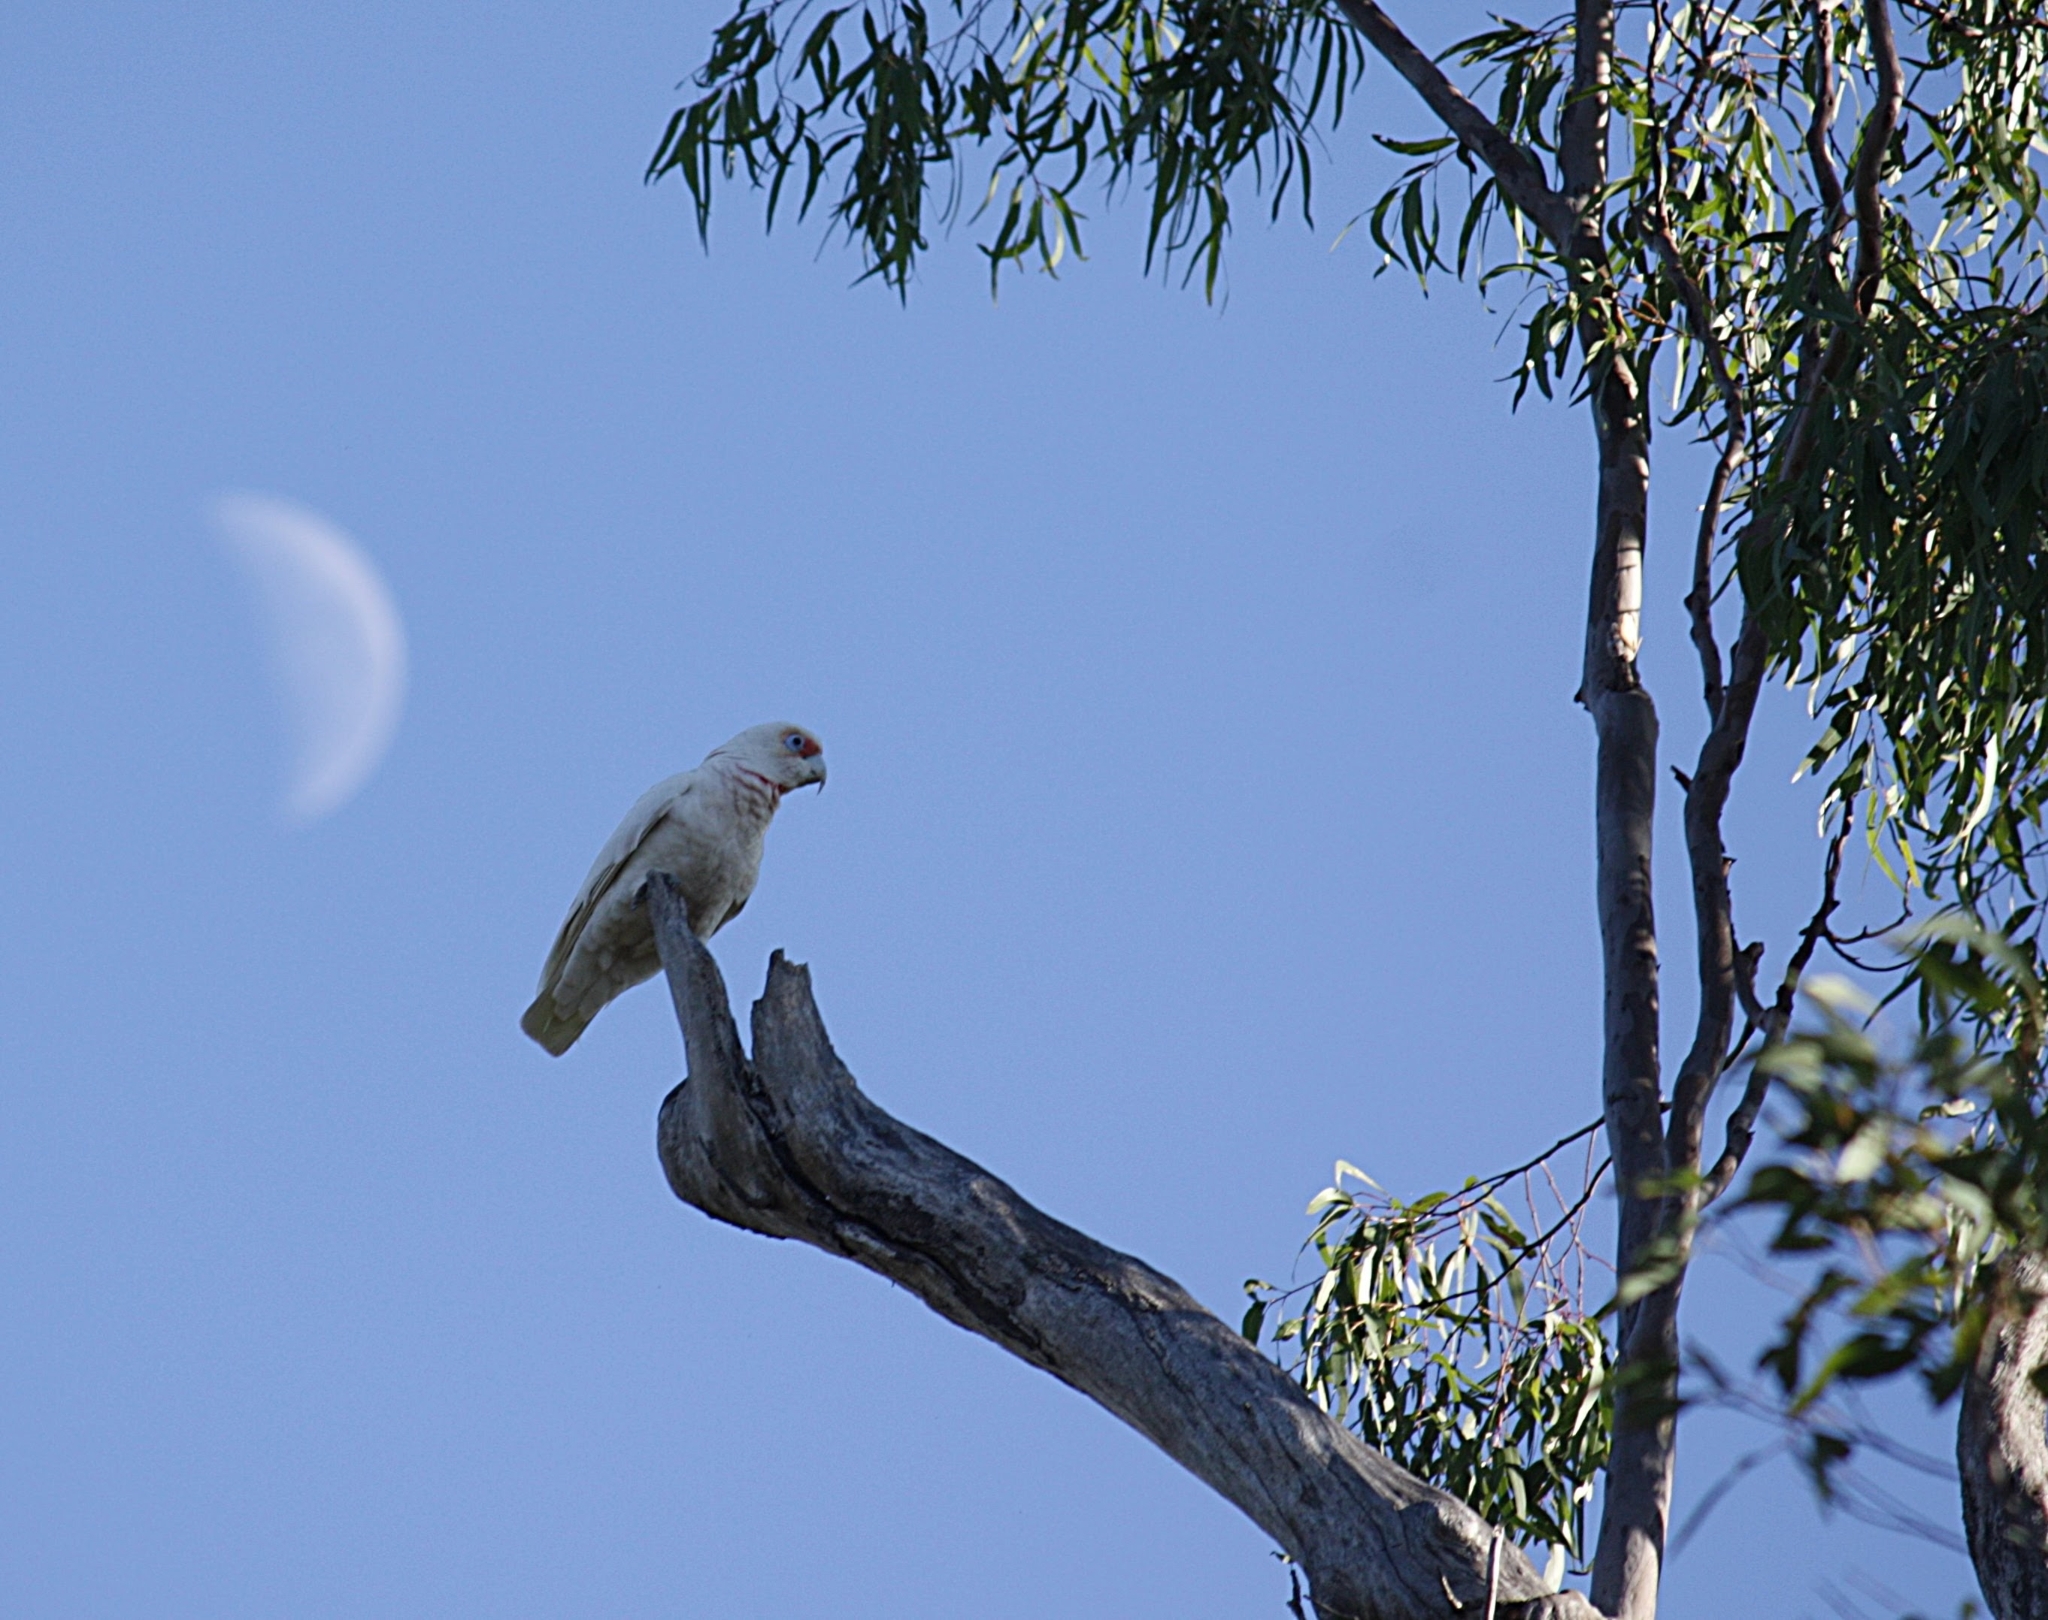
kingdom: Animalia
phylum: Chordata
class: Aves
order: Psittaciformes
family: Psittacidae
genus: Cacatua
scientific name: Cacatua tenuirostris
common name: Long-billed corella
